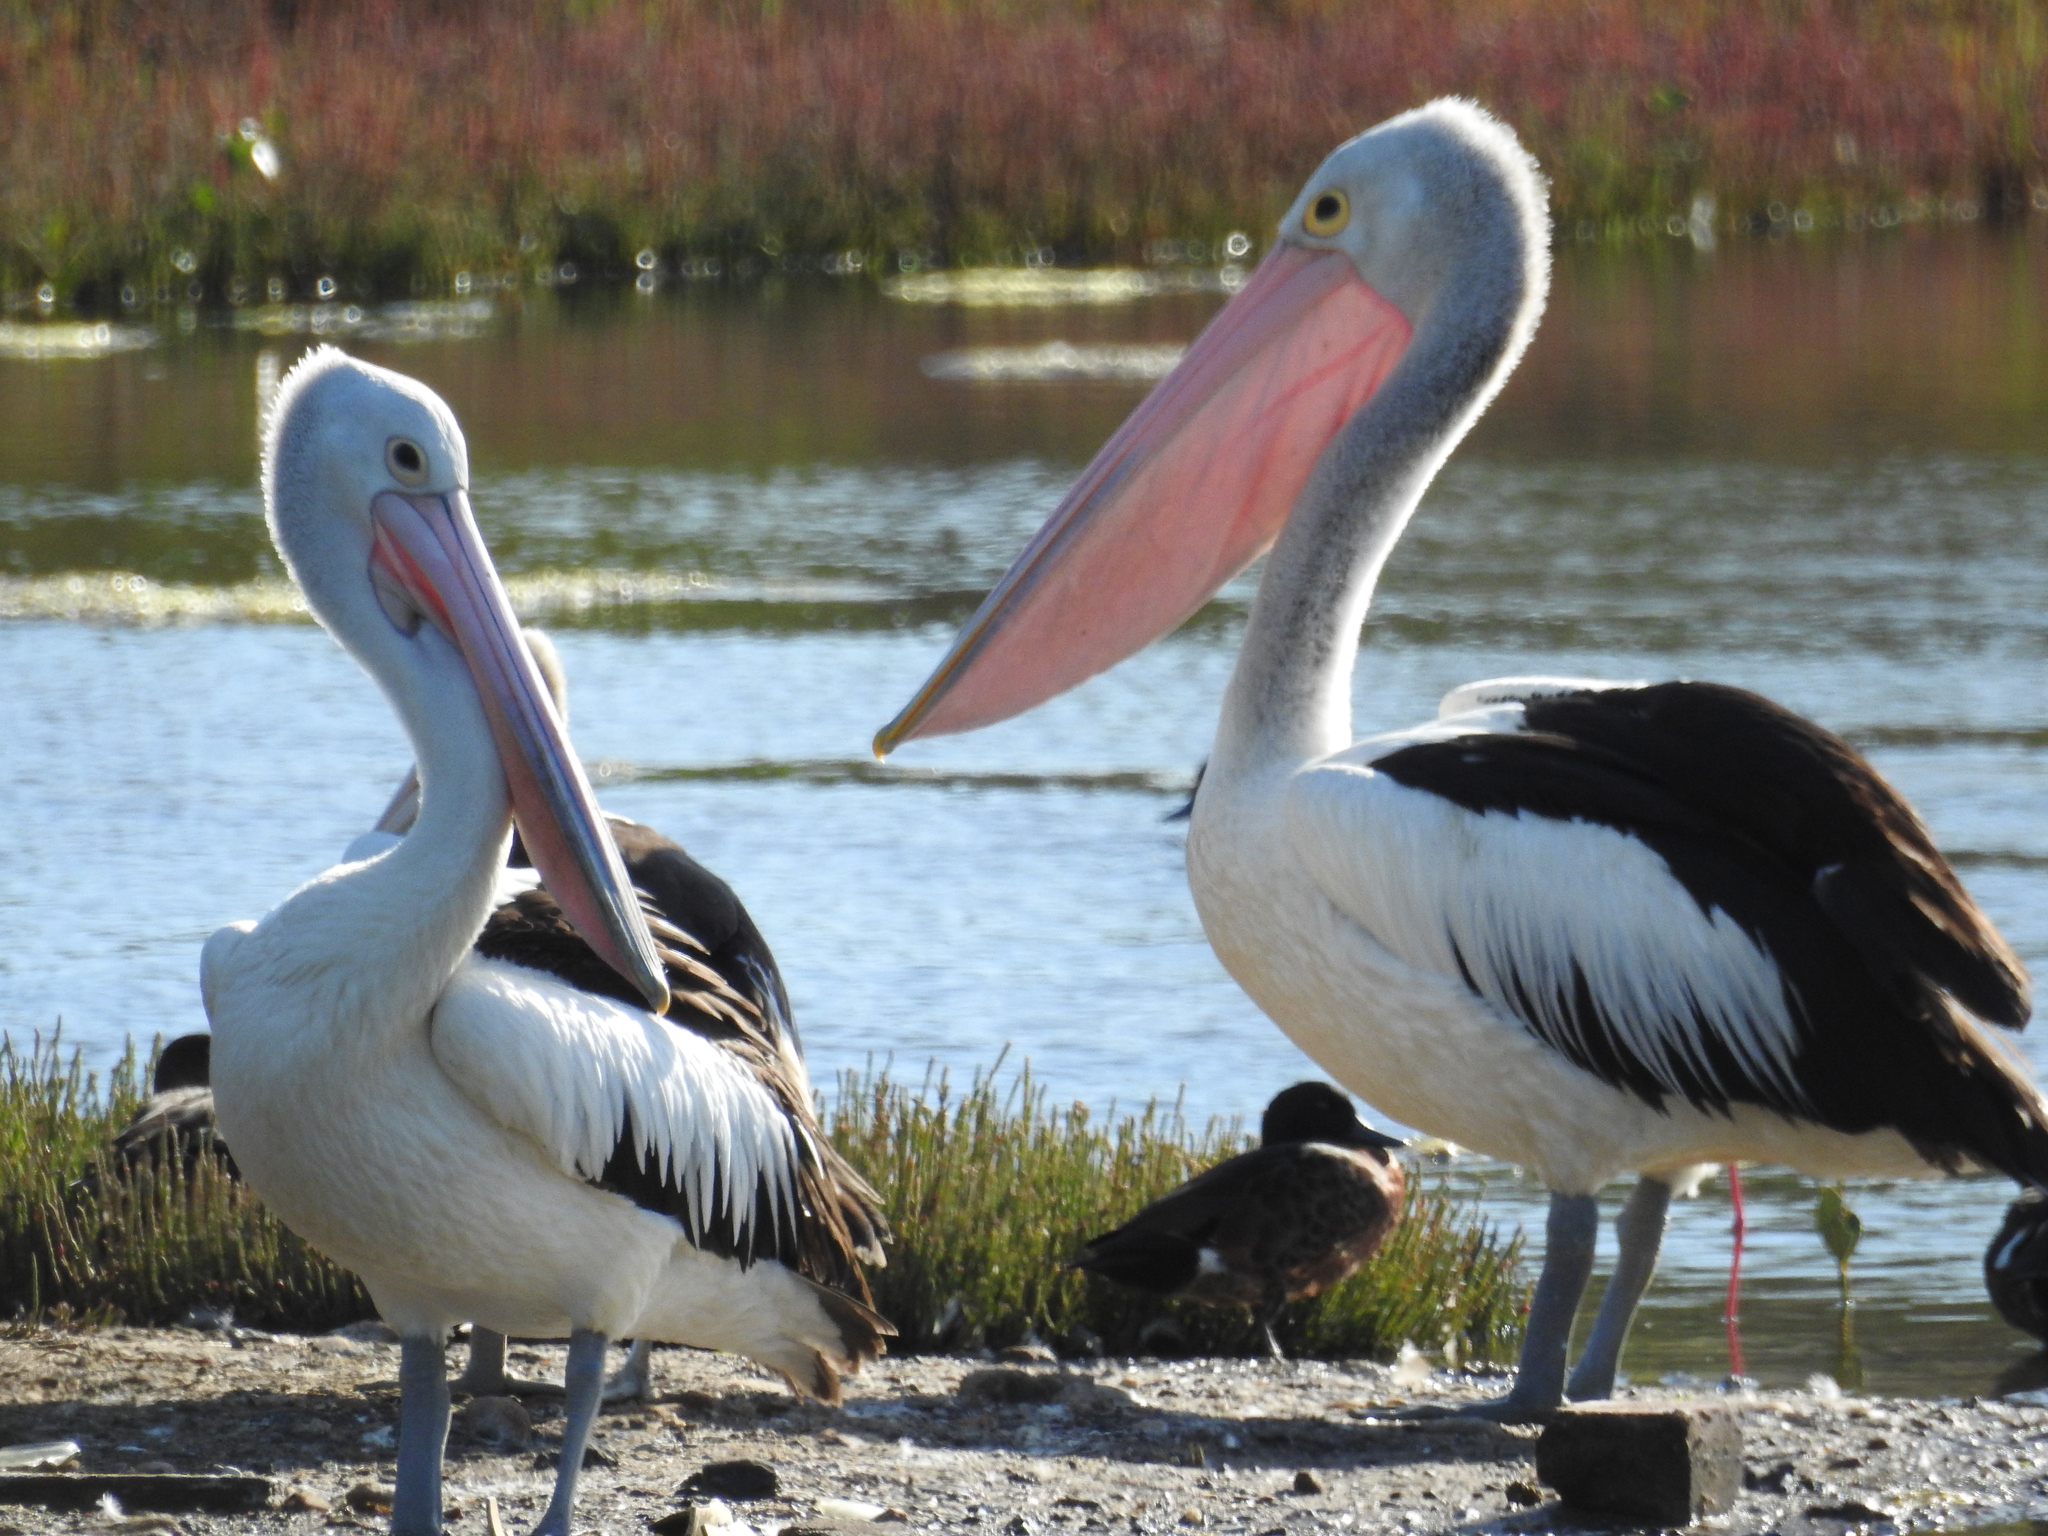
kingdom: Animalia
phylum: Chordata
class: Aves
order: Pelecaniformes
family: Pelecanidae
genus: Pelecanus
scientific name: Pelecanus conspicillatus
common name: Australian pelican
